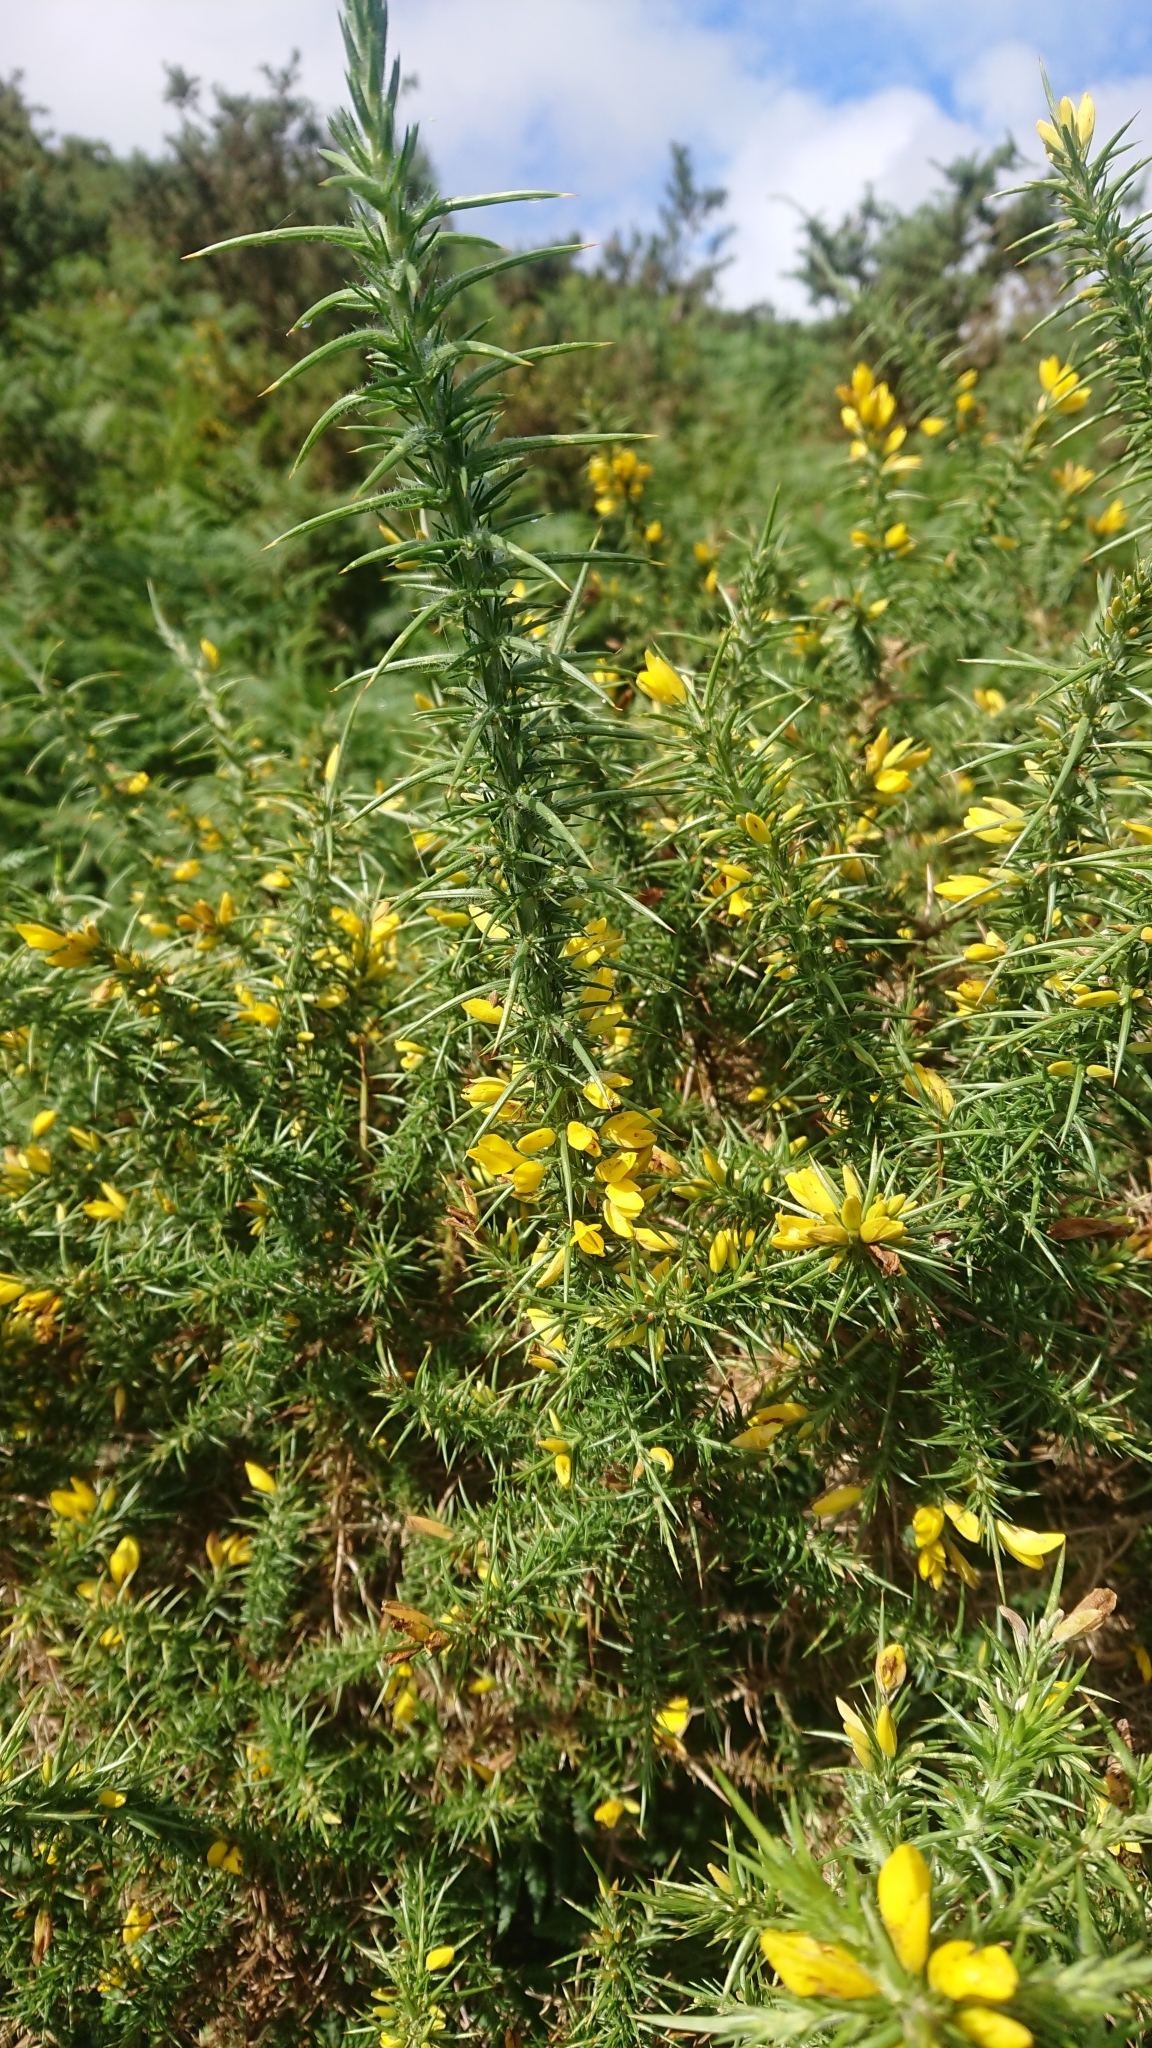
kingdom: Plantae
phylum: Tracheophyta
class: Magnoliopsida
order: Fabales
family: Fabaceae
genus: Ulex
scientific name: Ulex europaeus
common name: Common gorse
